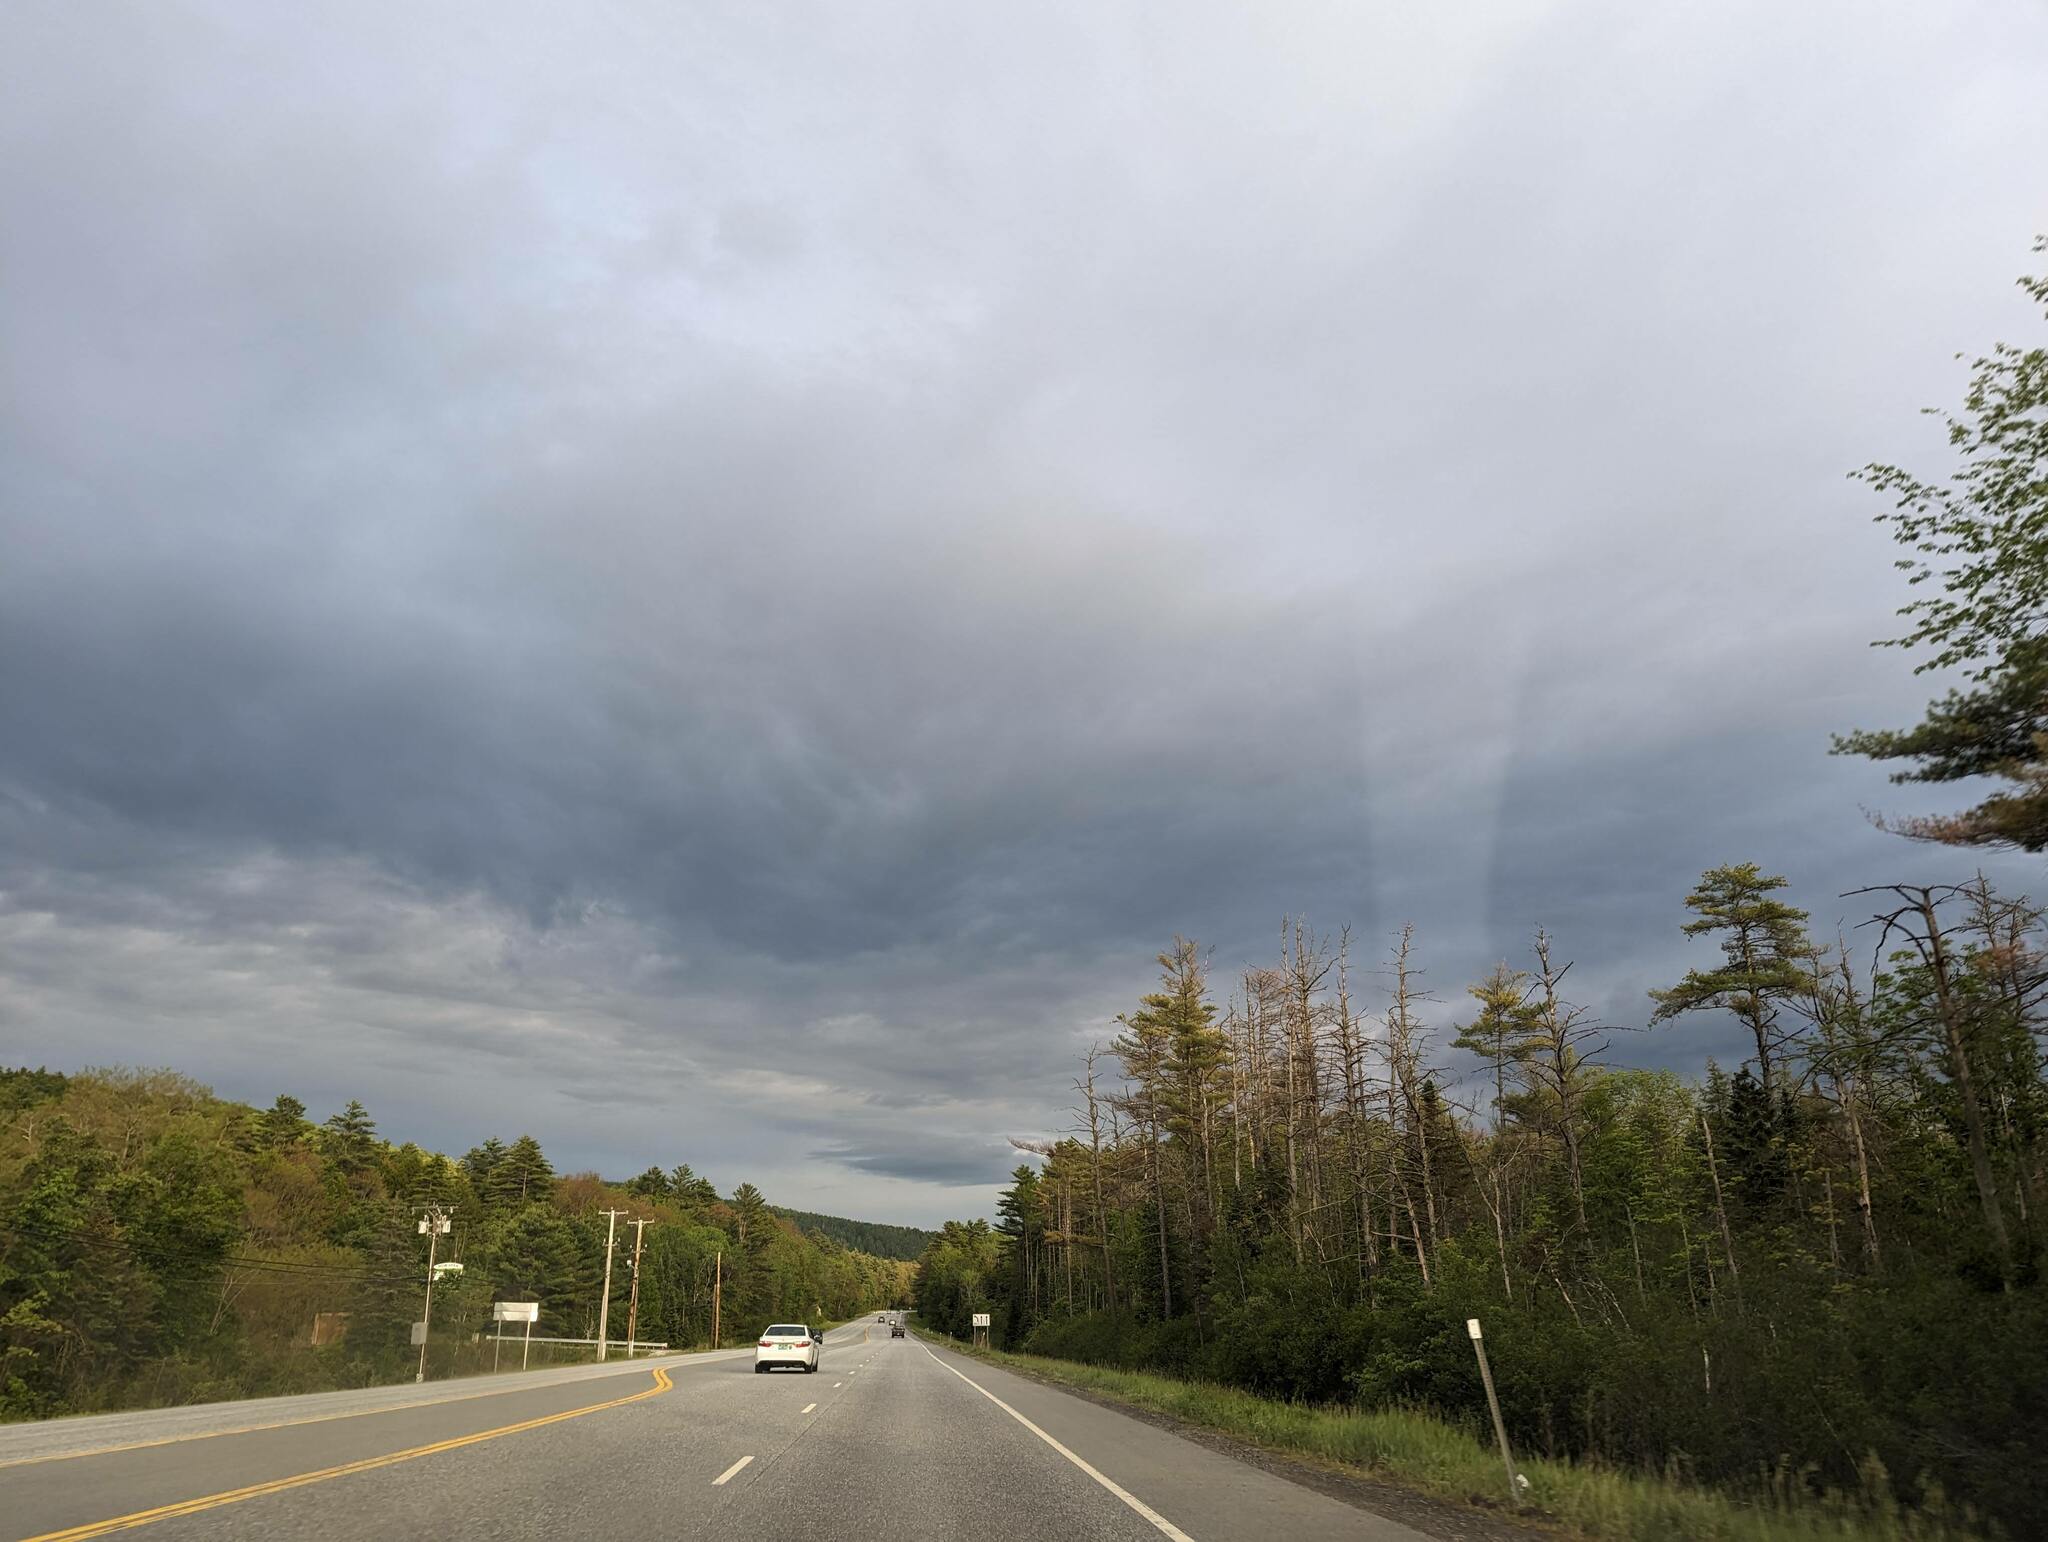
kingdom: Plantae
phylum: Tracheophyta
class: Pinopsida
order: Pinales
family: Pinaceae
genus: Pinus
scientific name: Pinus strobus
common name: Weymouth pine
